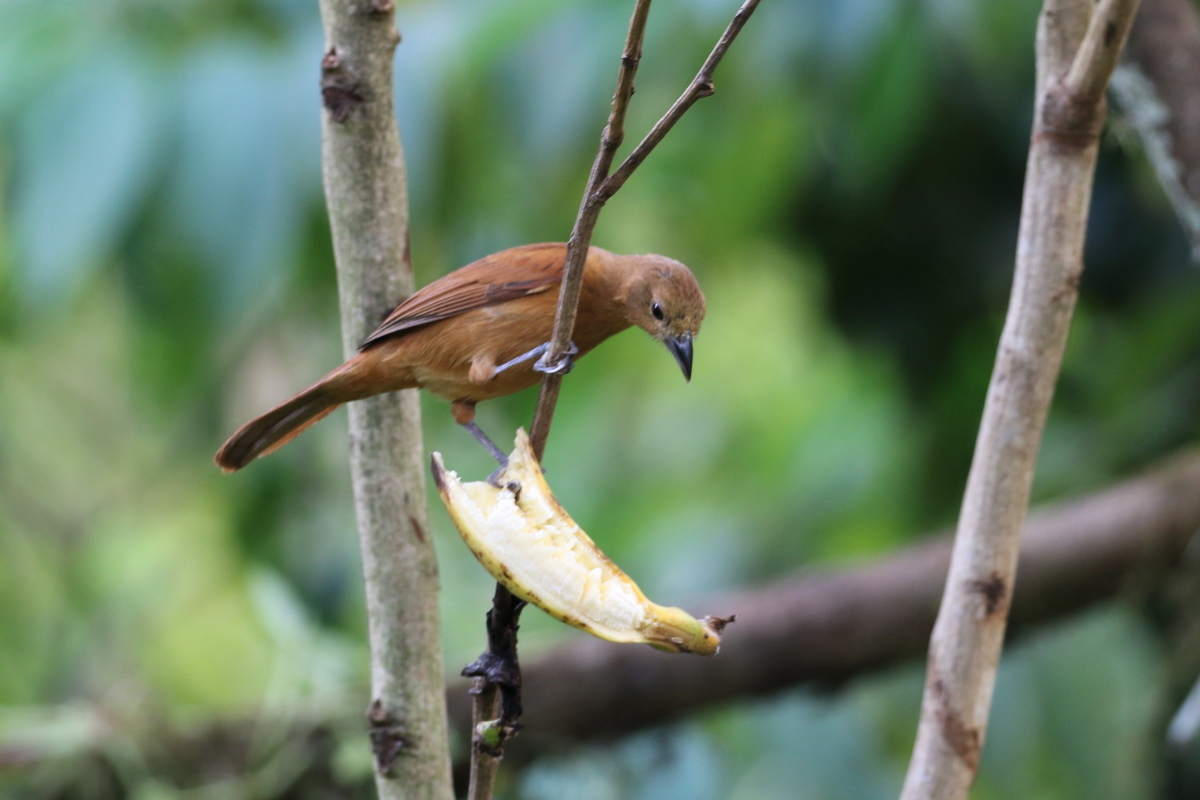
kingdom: Animalia
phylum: Chordata
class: Aves
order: Passeriformes
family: Thraupidae
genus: Tachyphonus
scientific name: Tachyphonus rufus
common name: White-lined tanager
